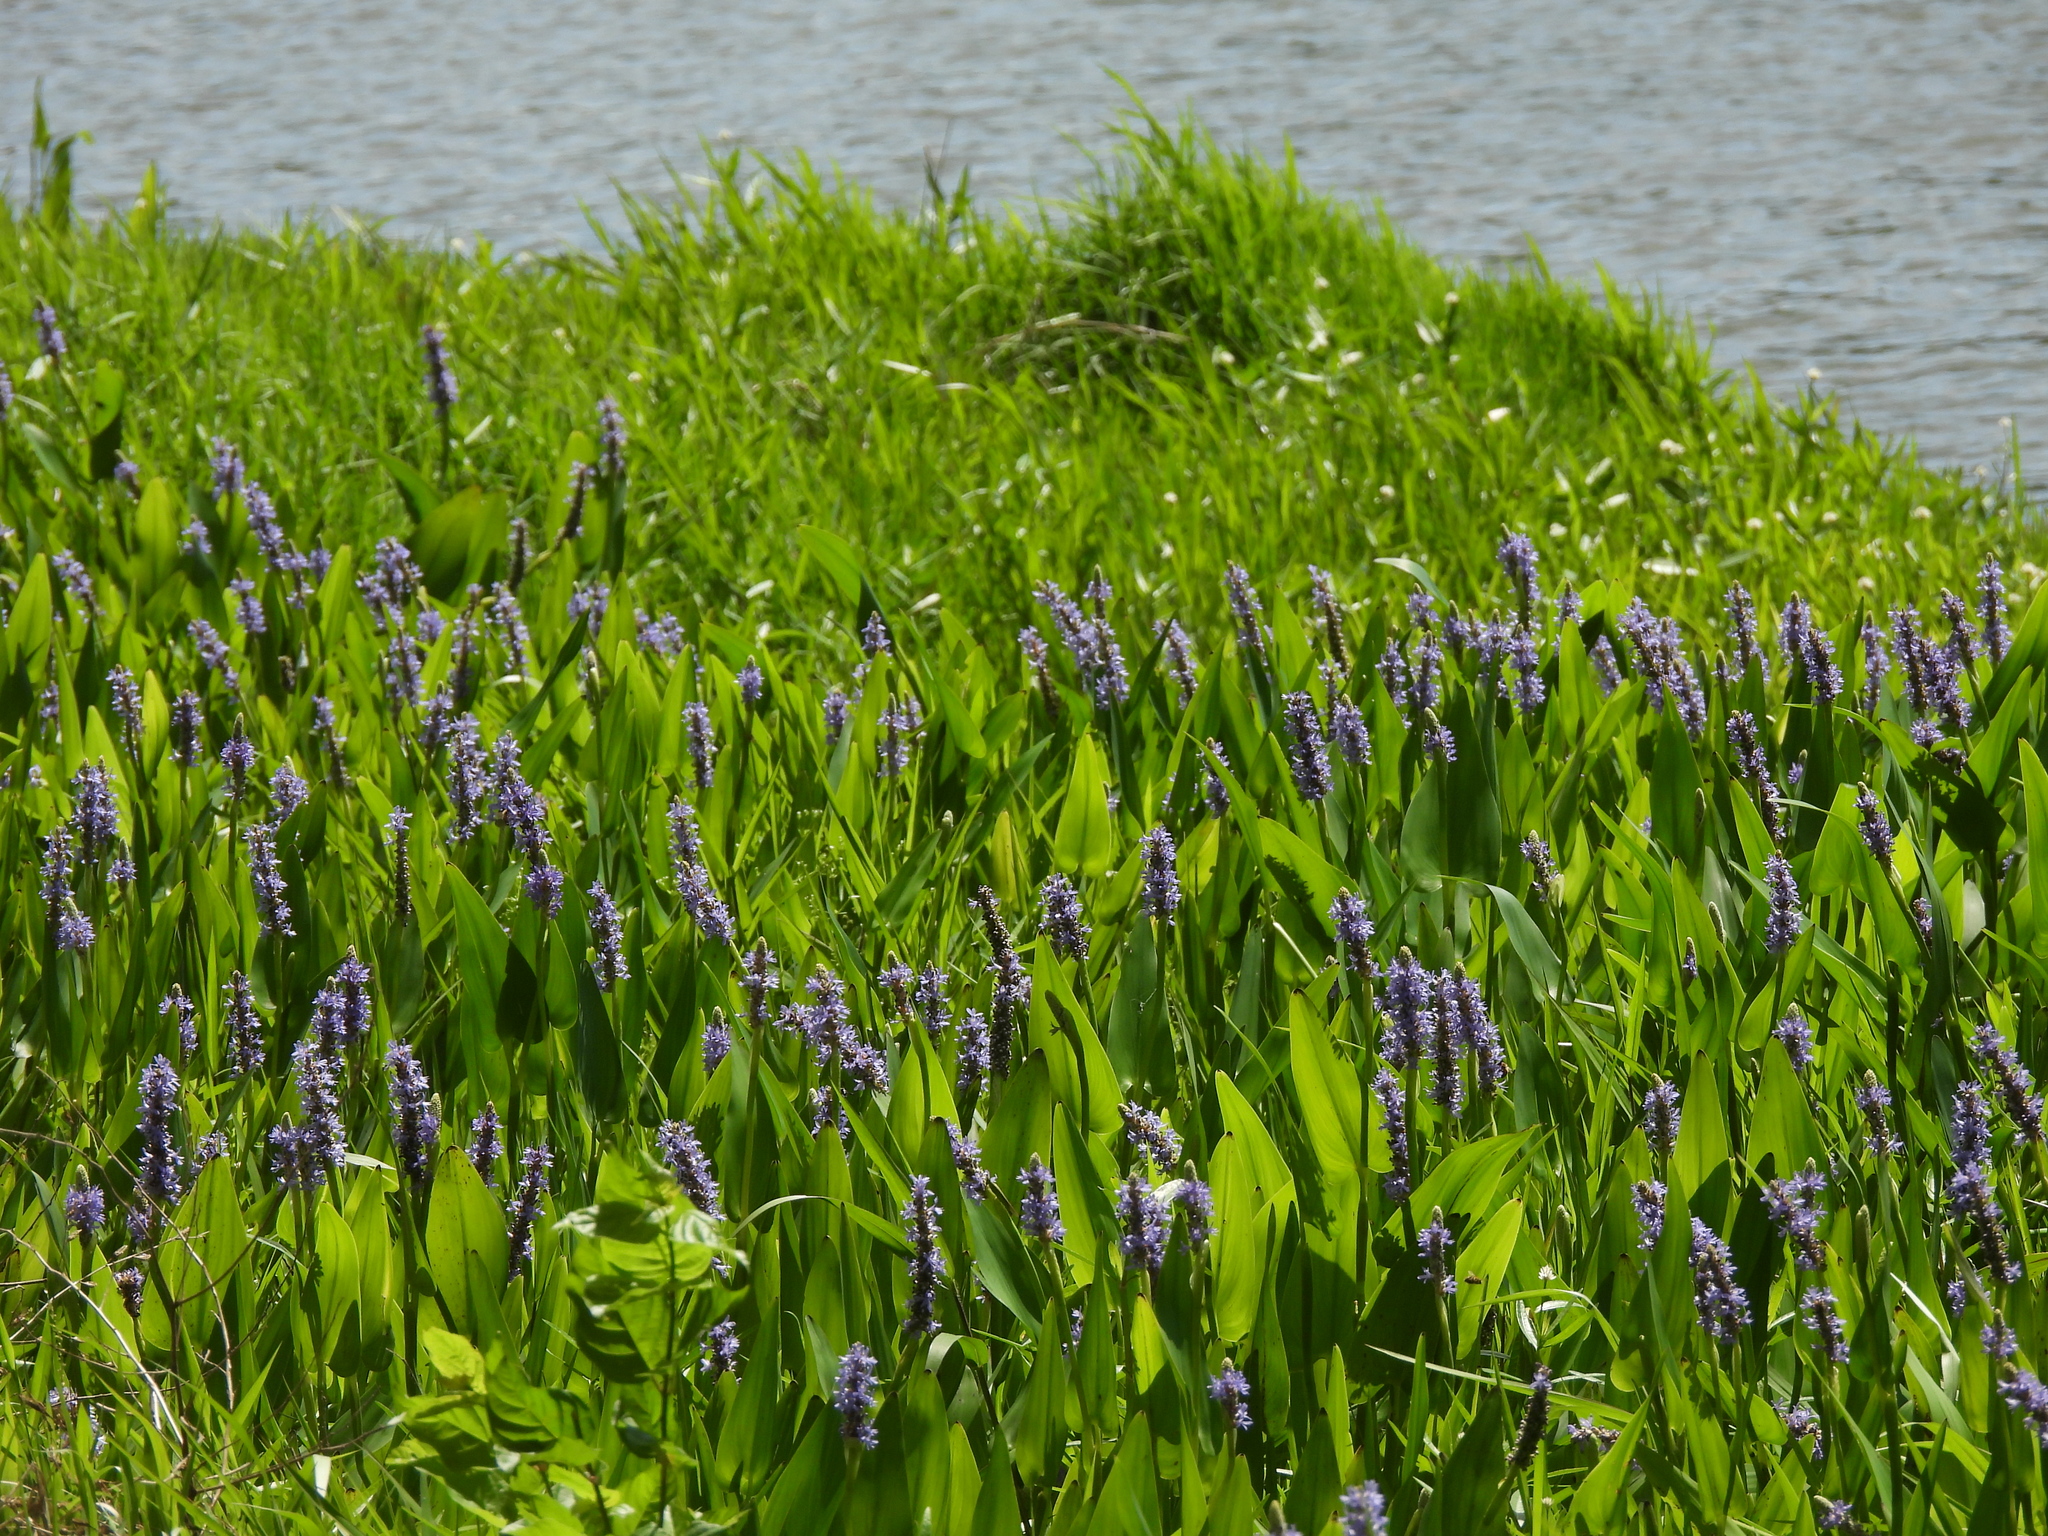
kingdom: Plantae
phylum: Tracheophyta
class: Liliopsida
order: Commelinales
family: Pontederiaceae
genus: Pontederia
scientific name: Pontederia cordata
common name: Pickerelweed
